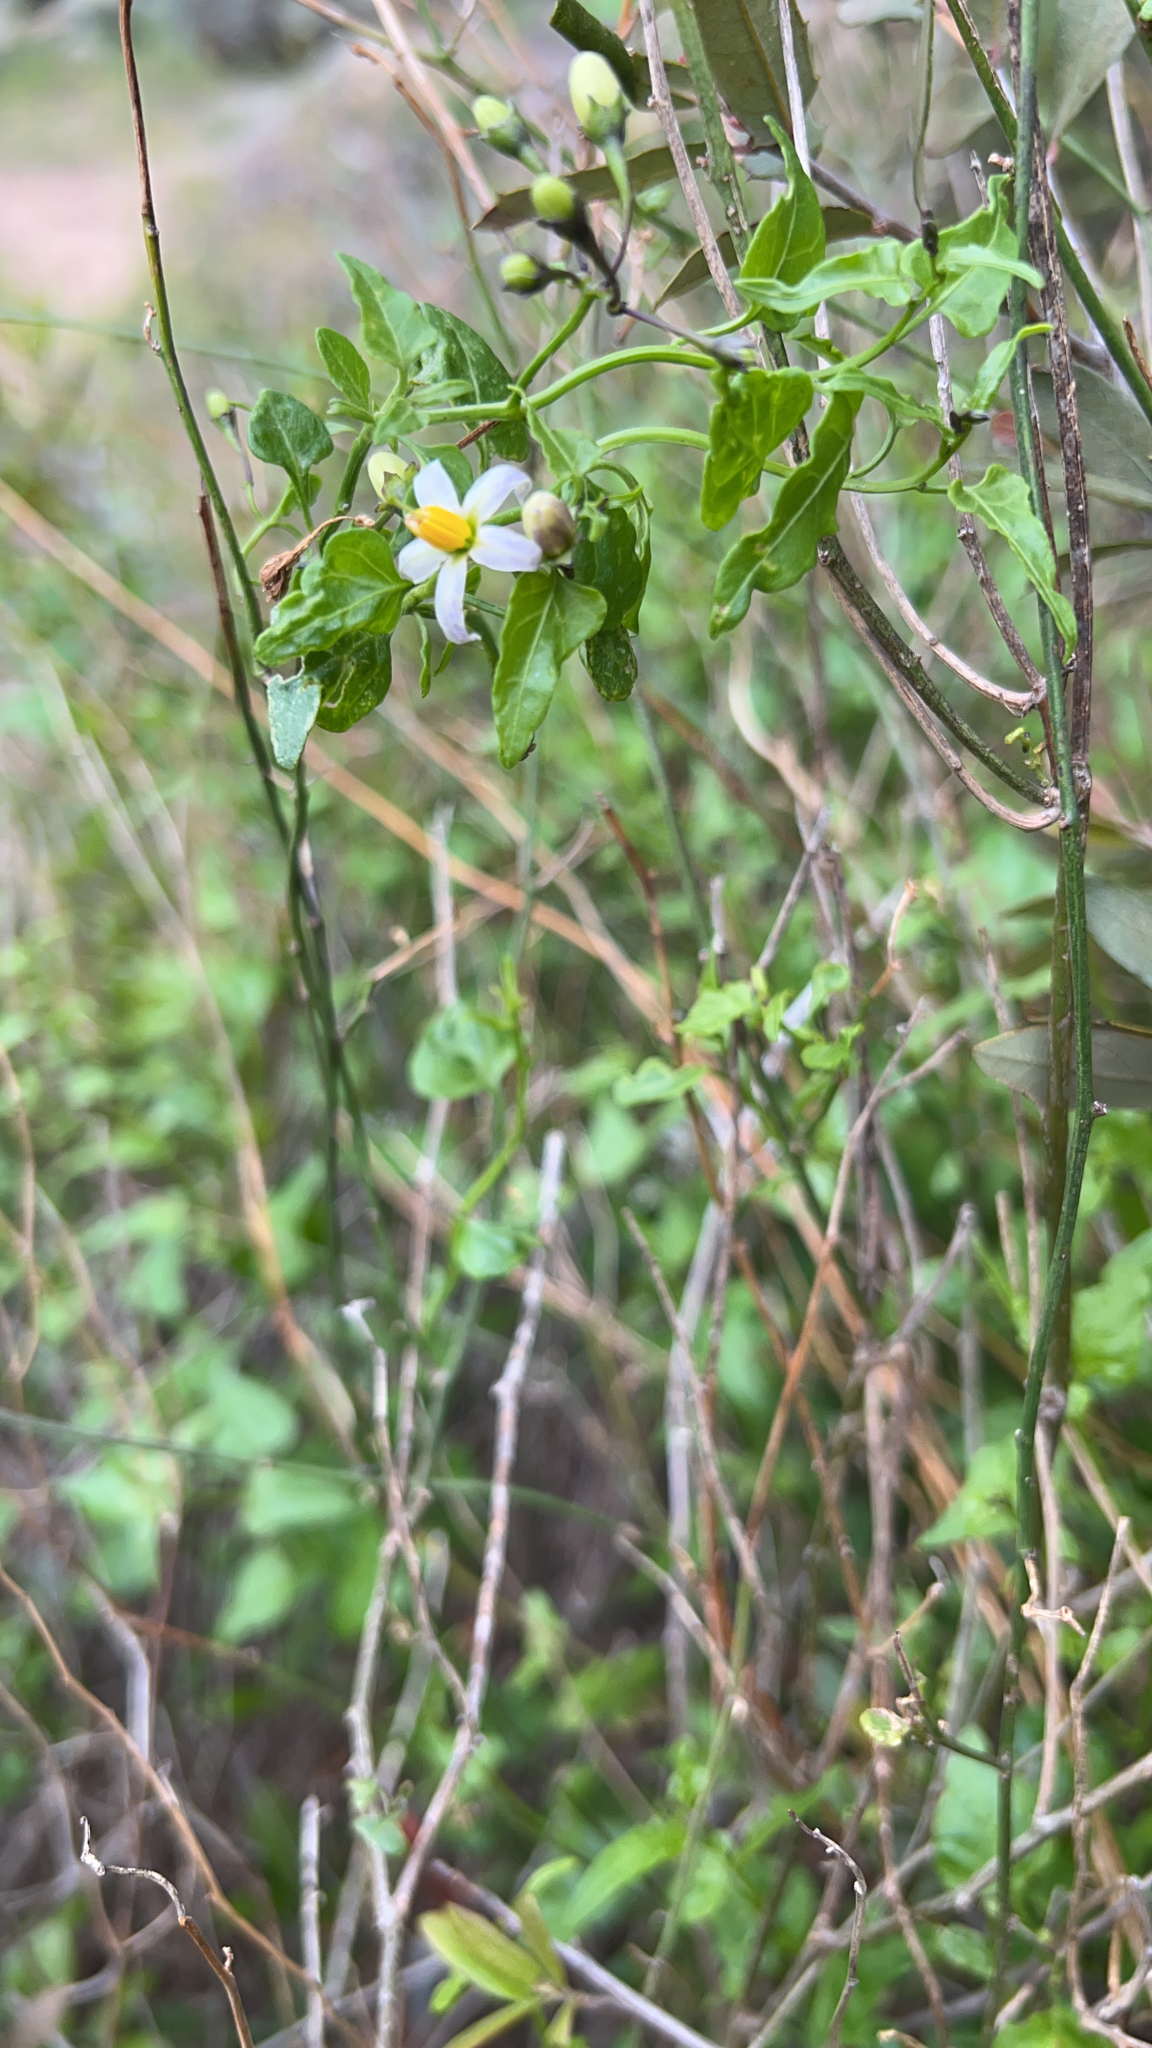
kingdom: Plantae
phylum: Tracheophyta
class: Magnoliopsida
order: Solanales
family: Solanaceae
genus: Solanum
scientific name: Solanum triquetrum
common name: Texas nightshade
